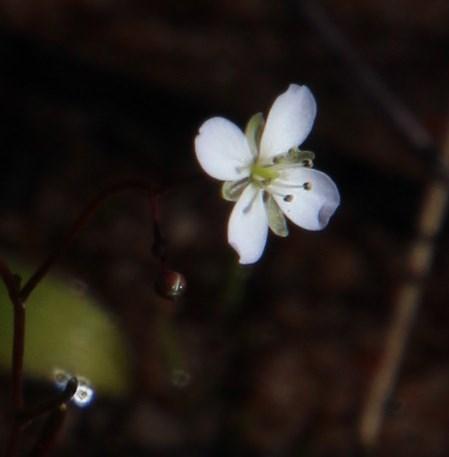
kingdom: Plantae
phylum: Tracheophyta
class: Magnoliopsida
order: Brassicales
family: Brassicaceae
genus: Heliophila
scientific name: Heliophila pinnata
